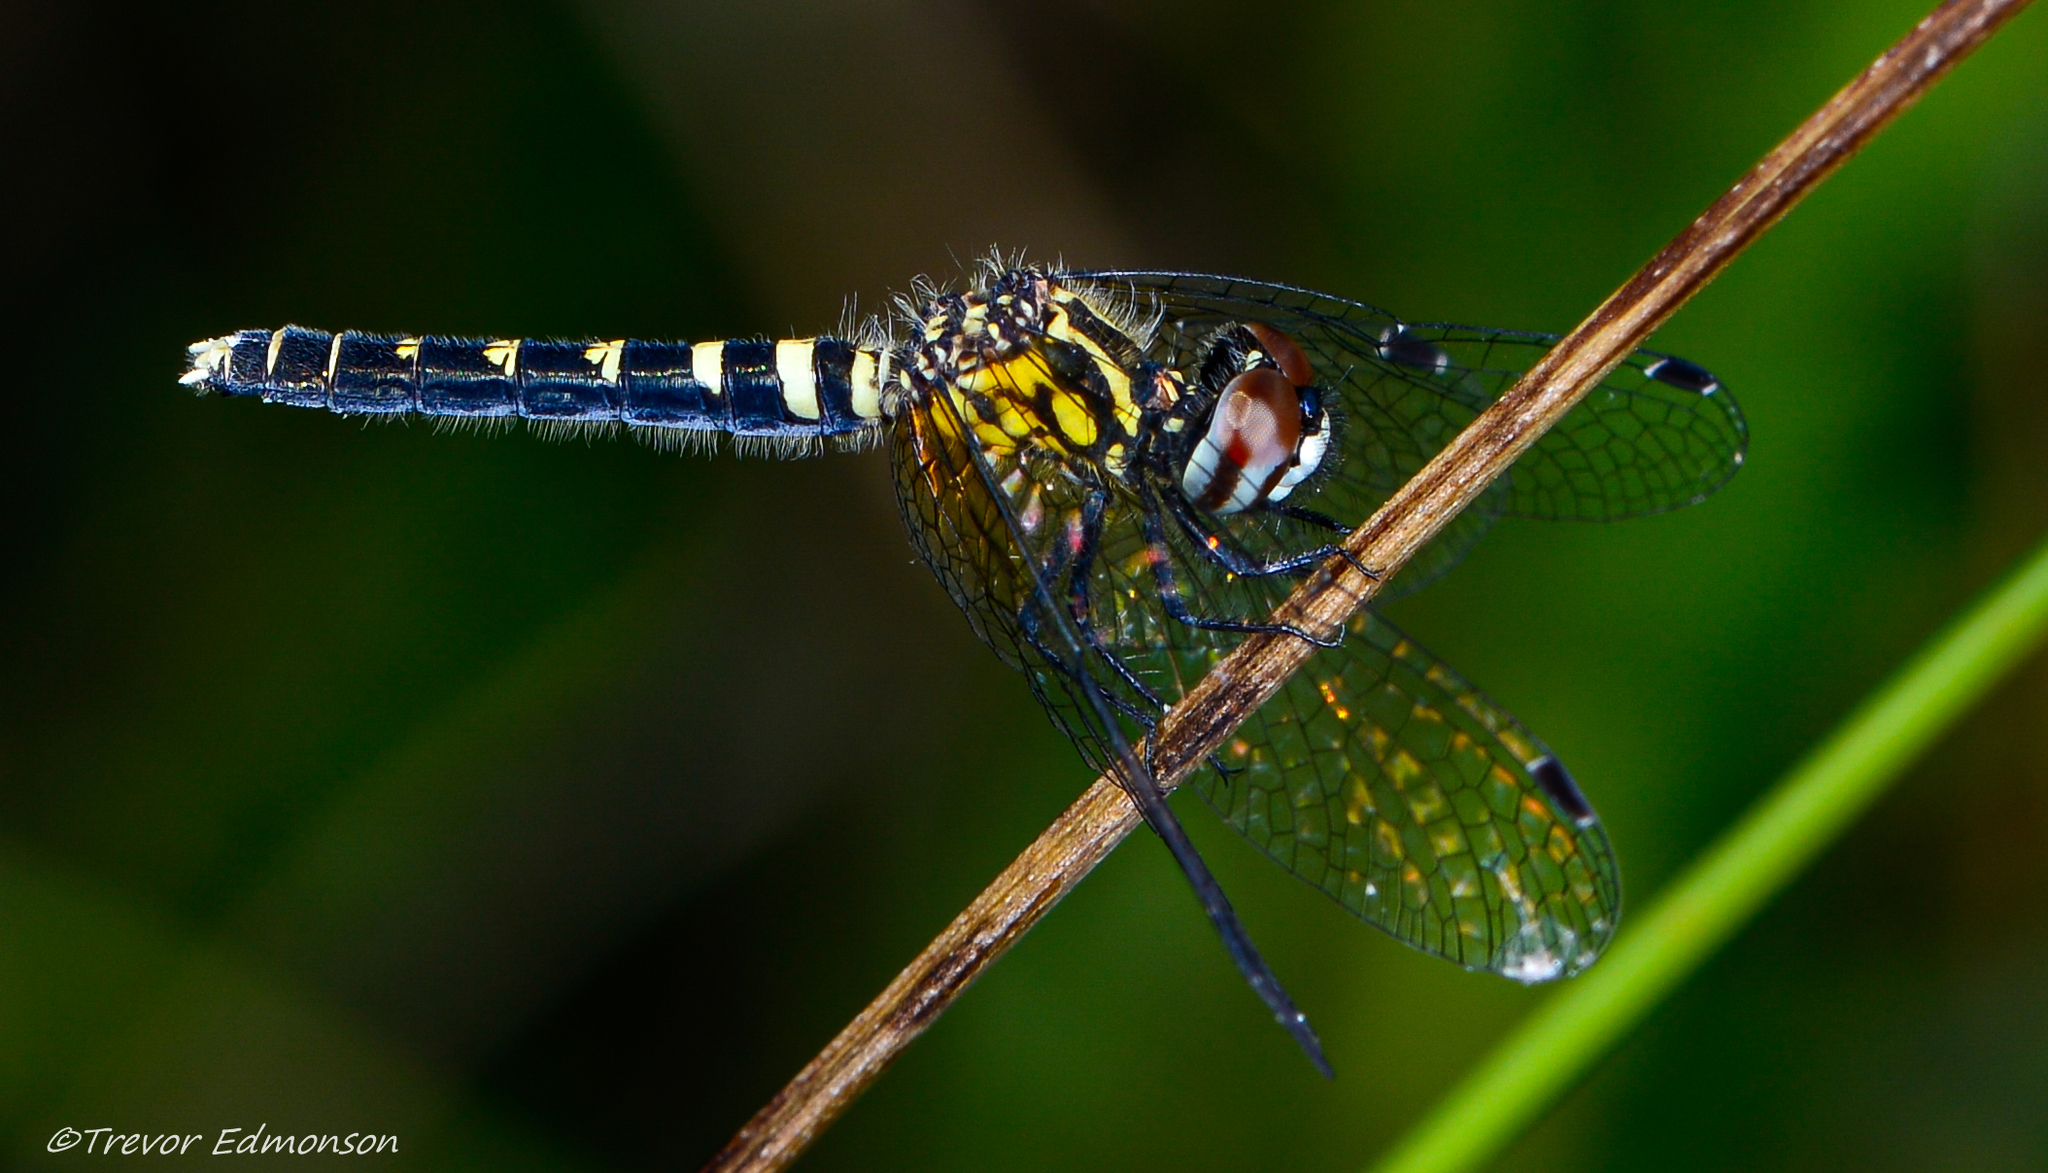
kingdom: Animalia
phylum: Arthropoda
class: Insecta
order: Odonata
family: Libellulidae
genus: Nannothemis
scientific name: Nannothemis bella
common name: Elfin skimmer
